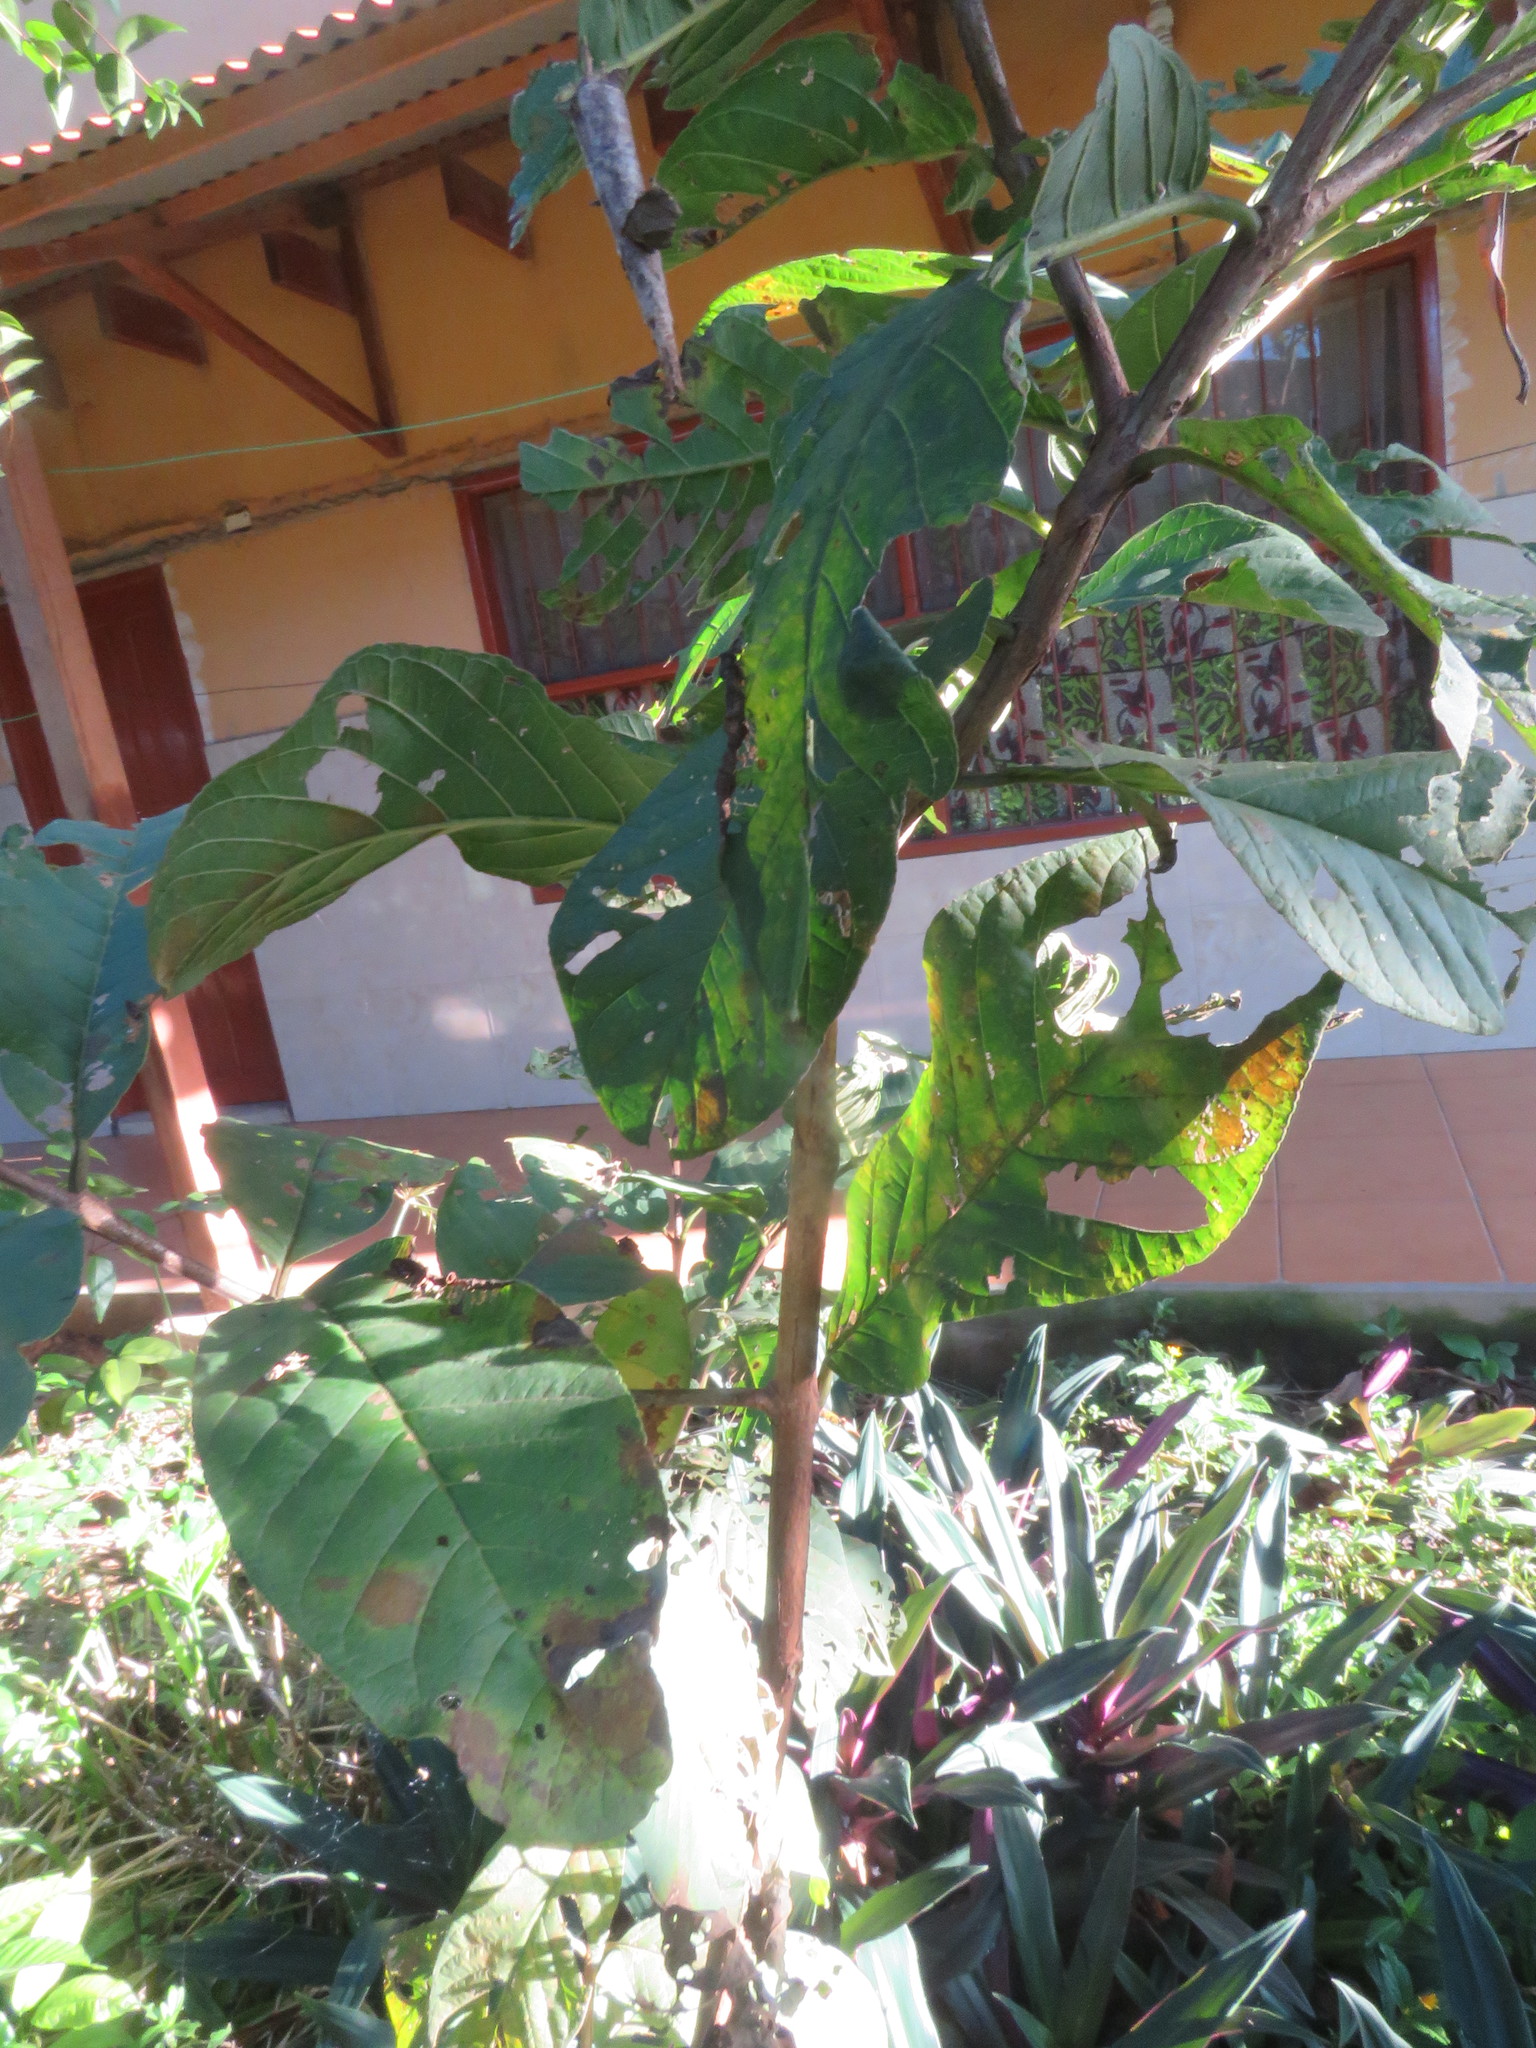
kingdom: Plantae
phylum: Tracheophyta
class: Magnoliopsida
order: Myrtales
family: Myrtaceae
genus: Psidium
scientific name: Psidium guajava
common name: Guava
